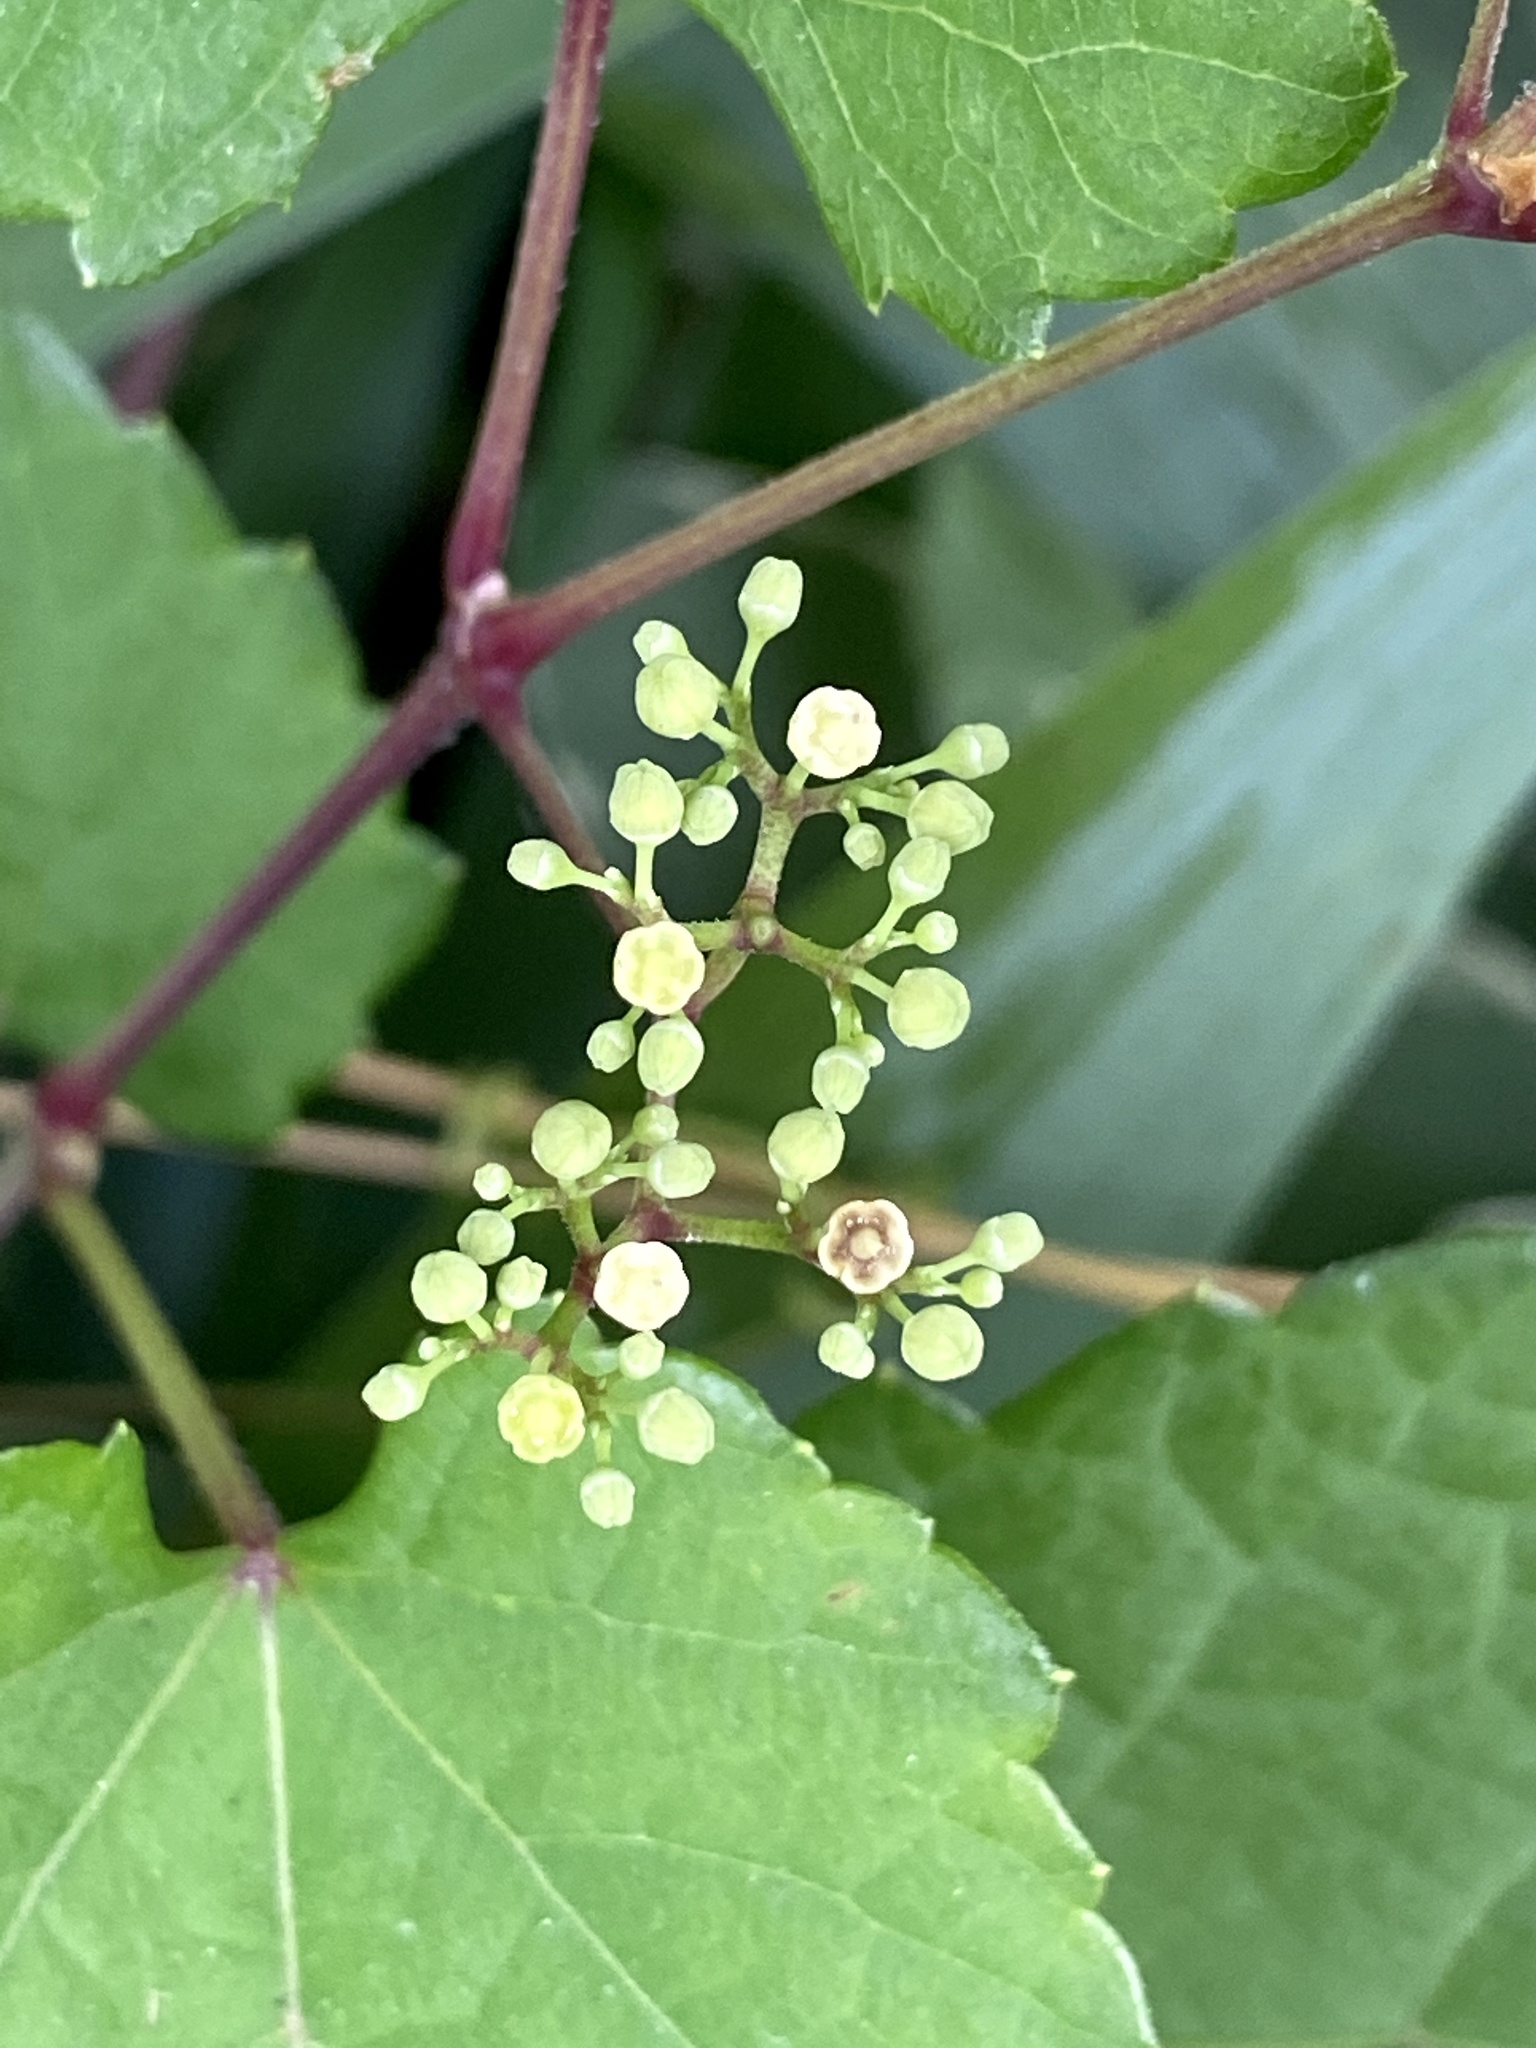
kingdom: Plantae
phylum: Tracheophyta
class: Magnoliopsida
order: Vitales
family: Vitaceae
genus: Ampelopsis
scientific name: Ampelopsis glandulosa
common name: Amur peppervine
